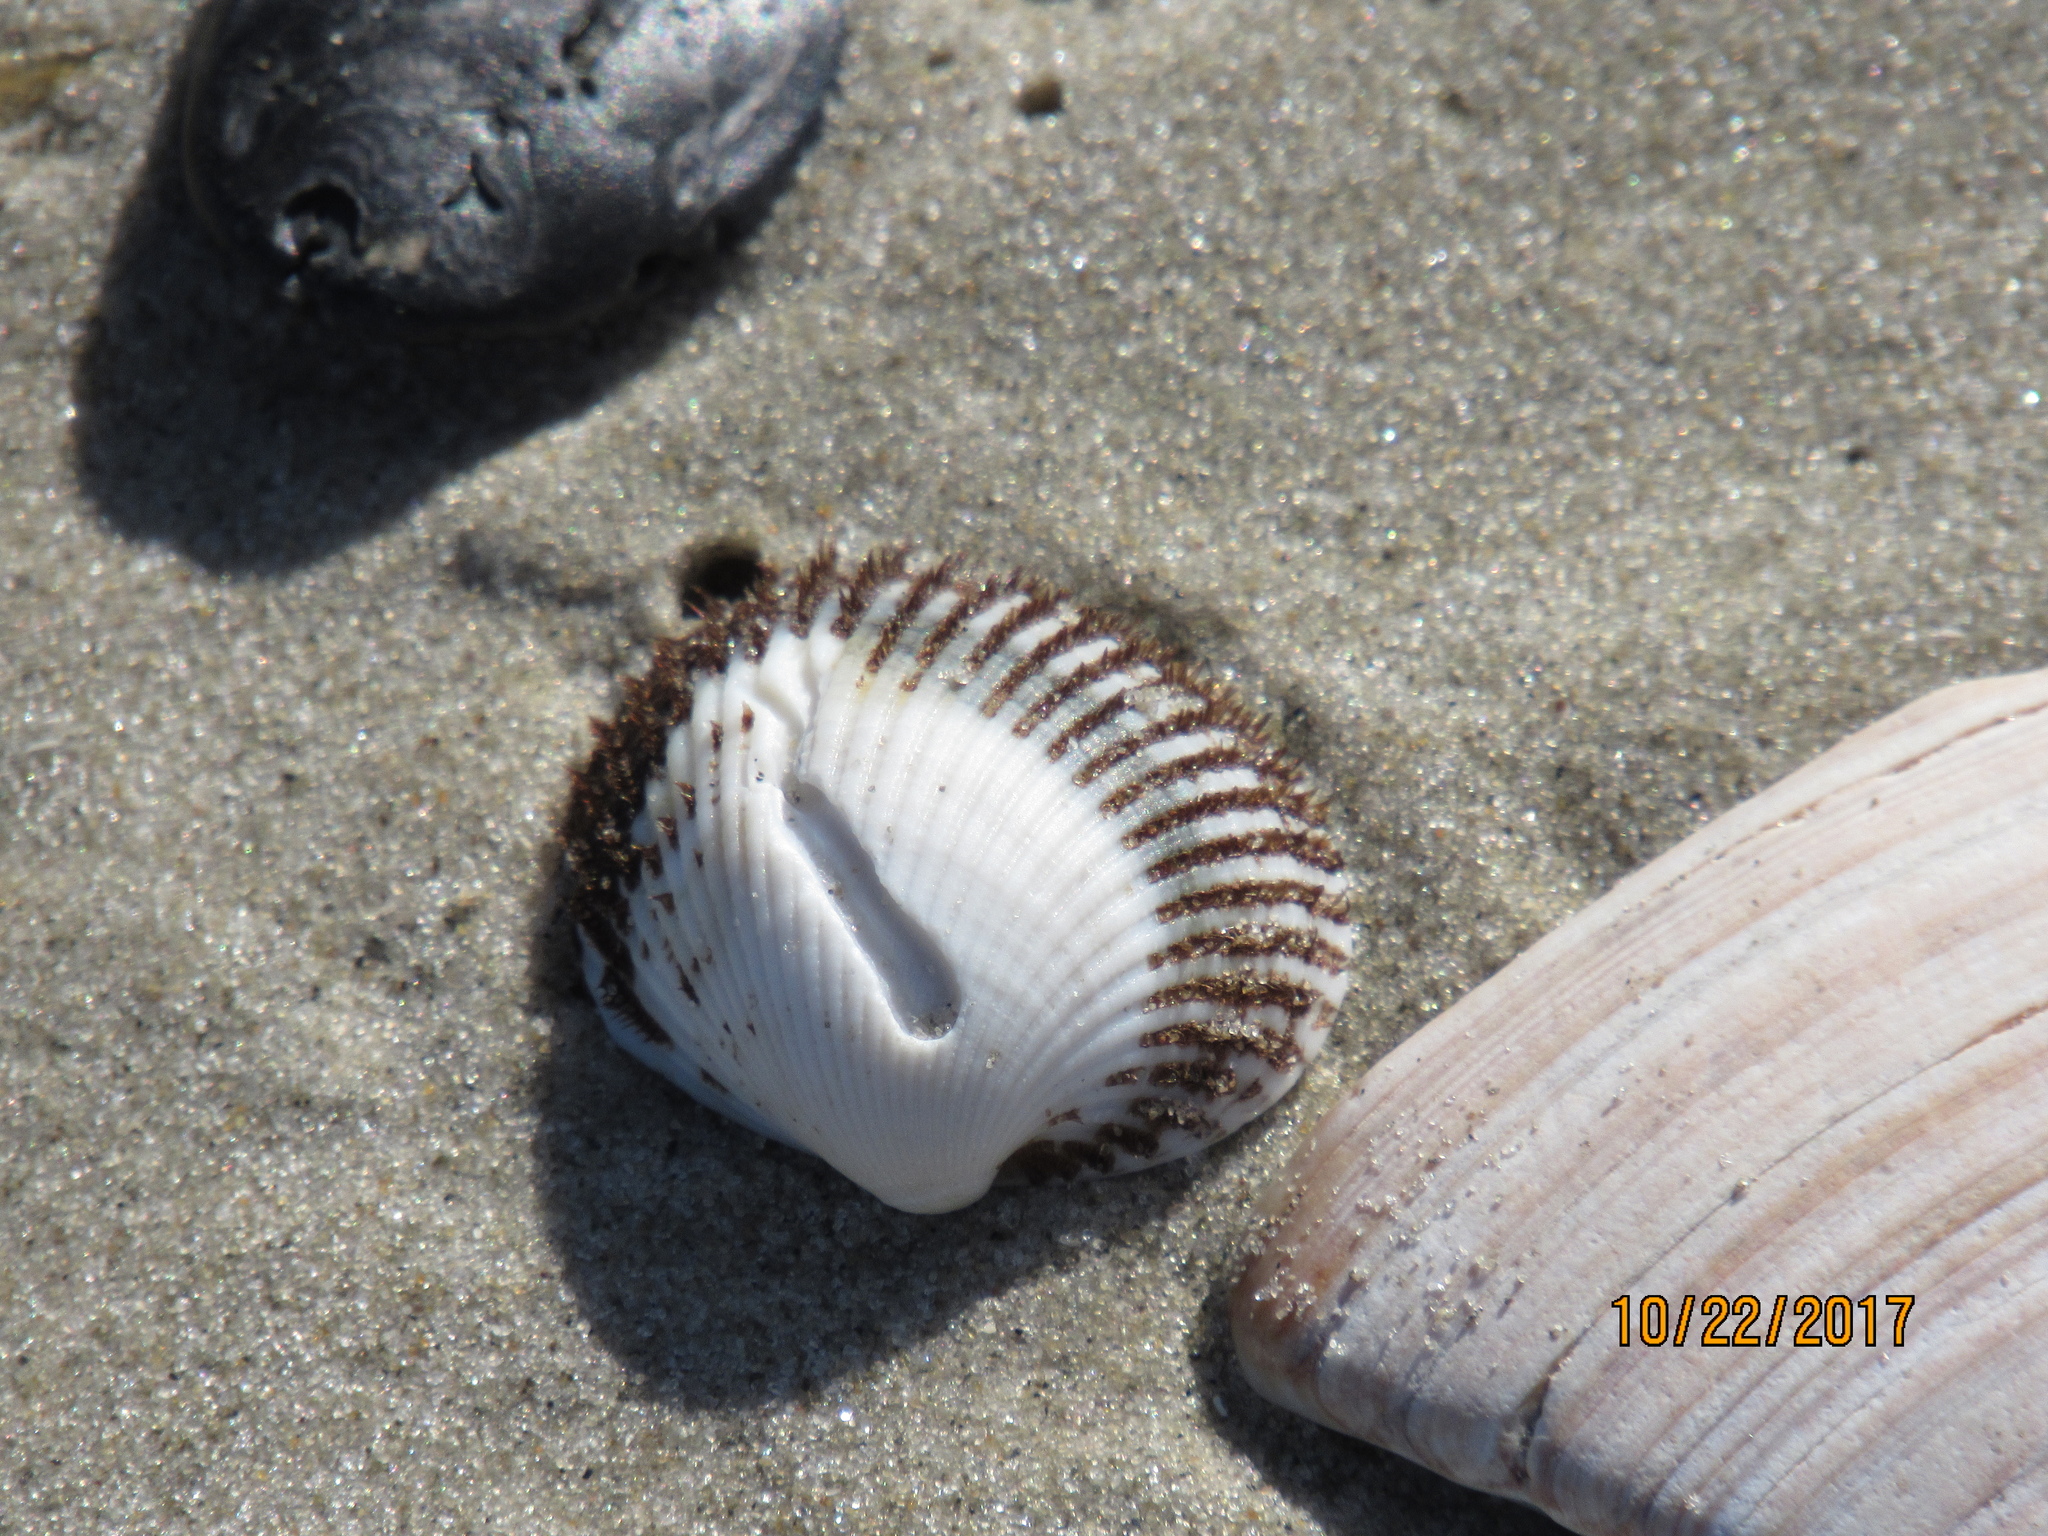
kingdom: Animalia
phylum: Mollusca
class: Bivalvia
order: Arcida
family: Arcidae
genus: Lunarca
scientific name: Lunarca ovalis
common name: Blood ark
